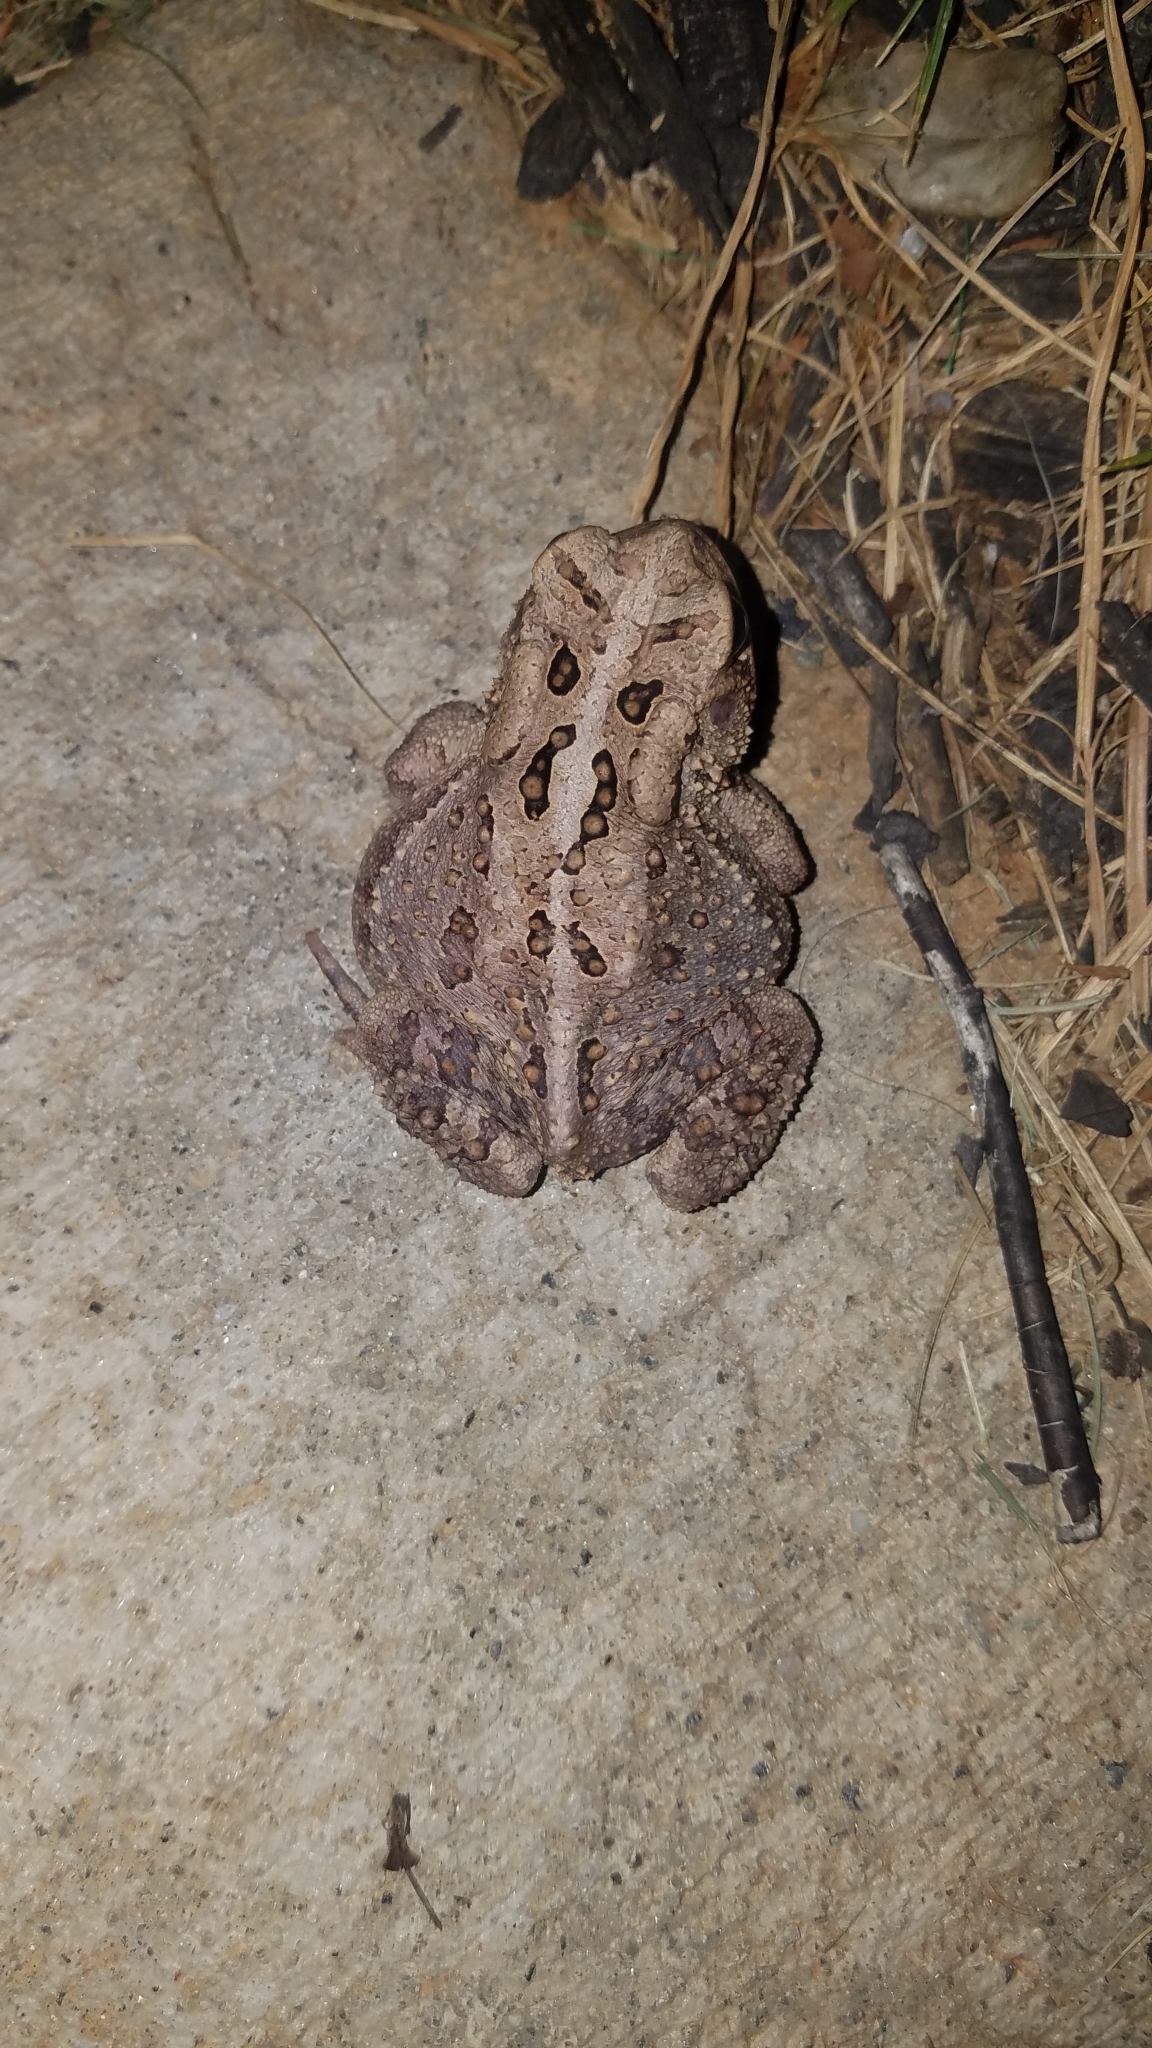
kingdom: Animalia
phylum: Chordata
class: Amphibia
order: Anura
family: Bufonidae
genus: Anaxyrus
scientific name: Anaxyrus americanus
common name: American toad
